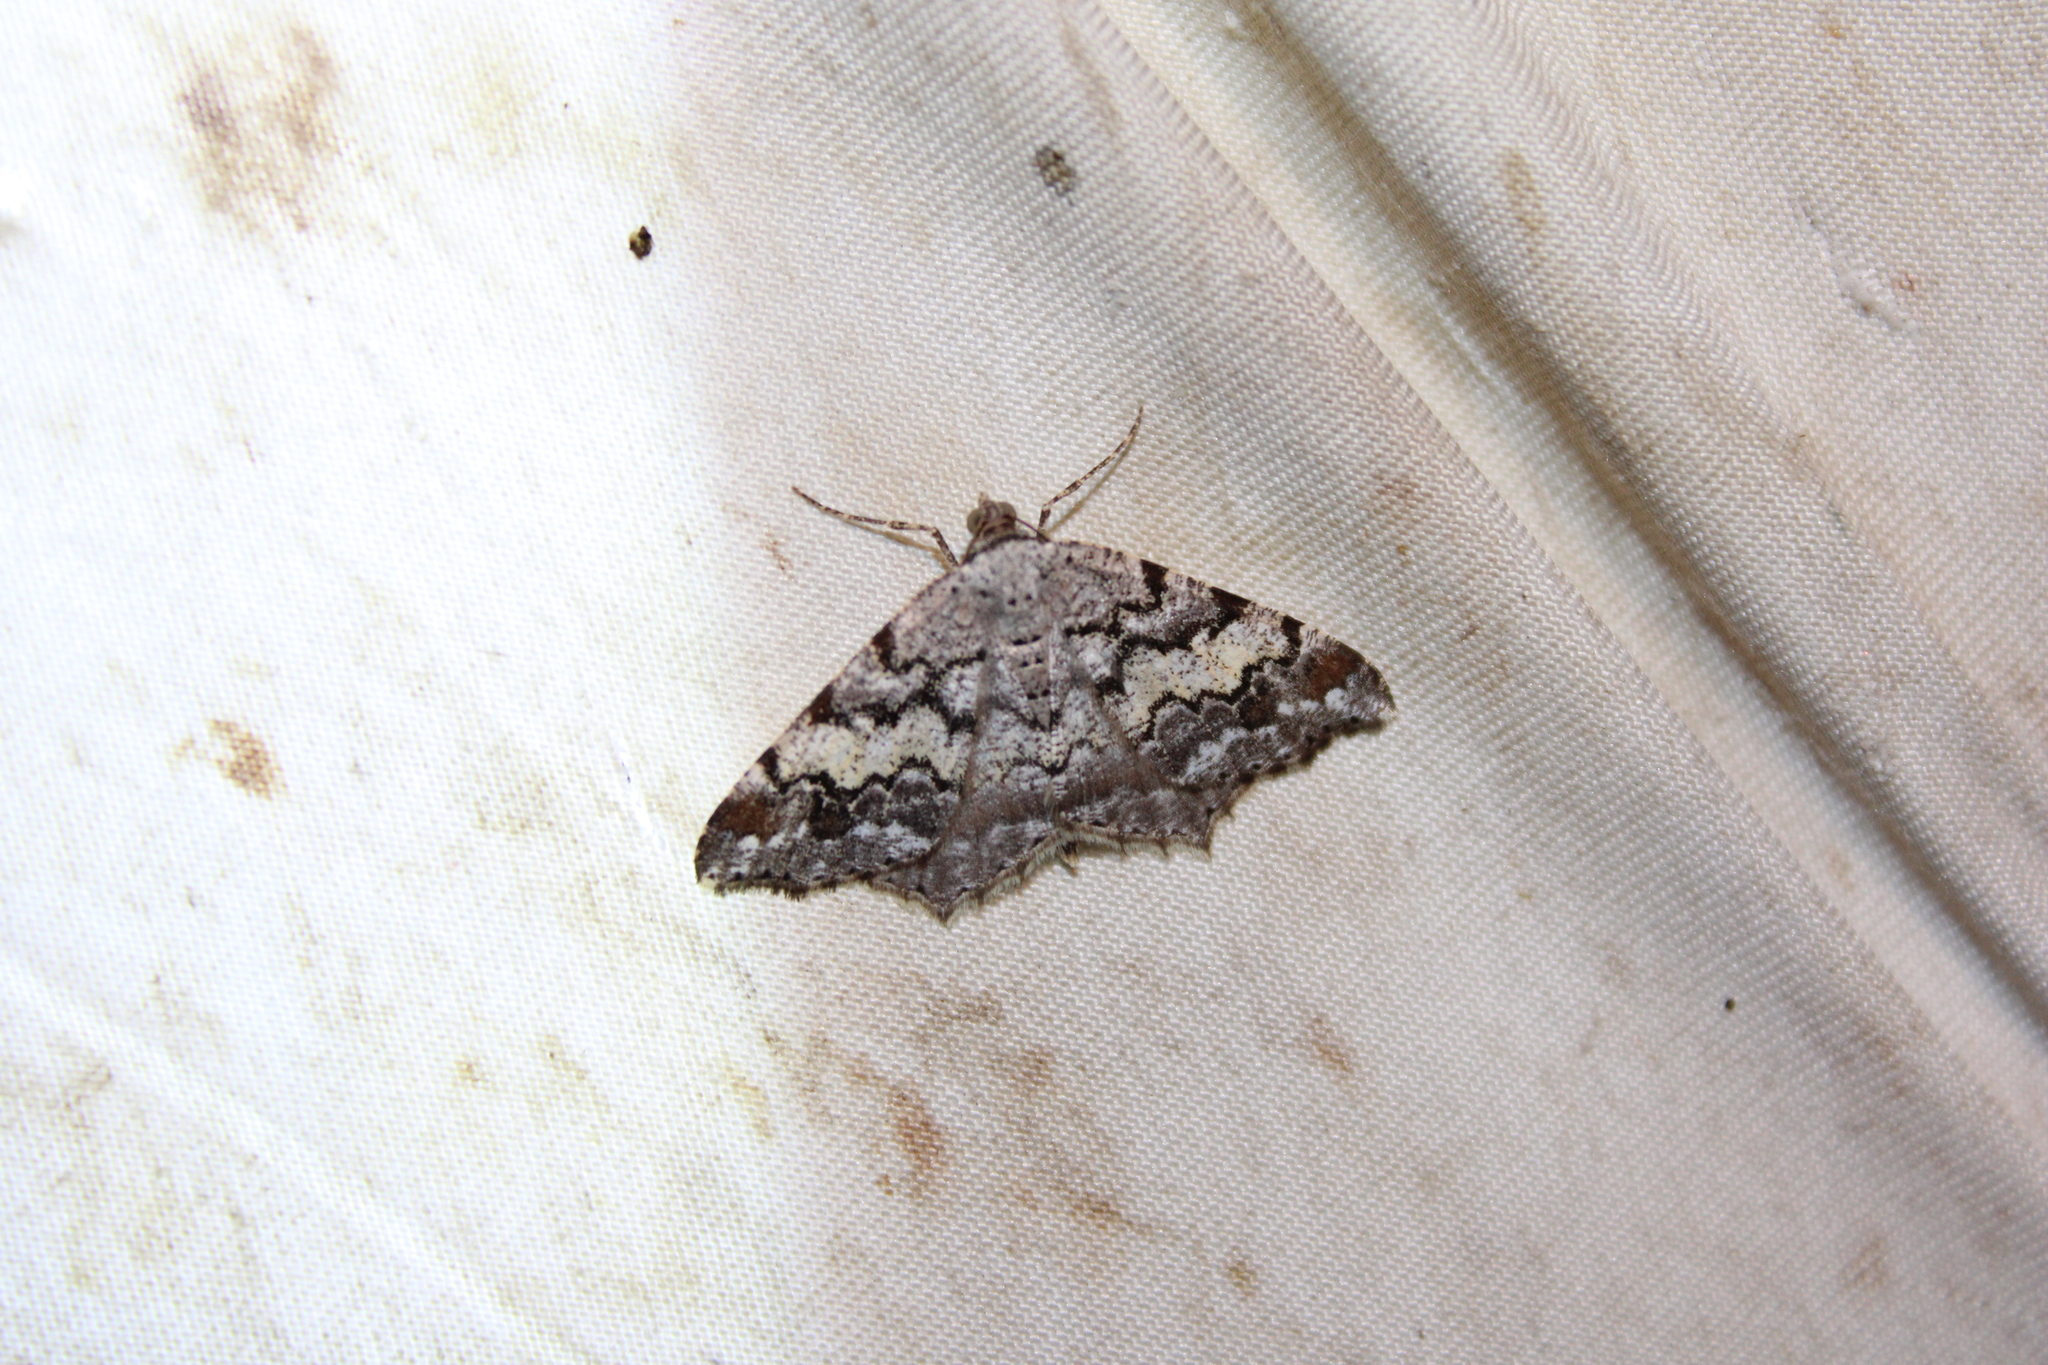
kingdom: Animalia
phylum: Arthropoda
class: Insecta
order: Lepidoptera
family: Geometridae
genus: Macaria
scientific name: Macaria granitata
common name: Granite moth
